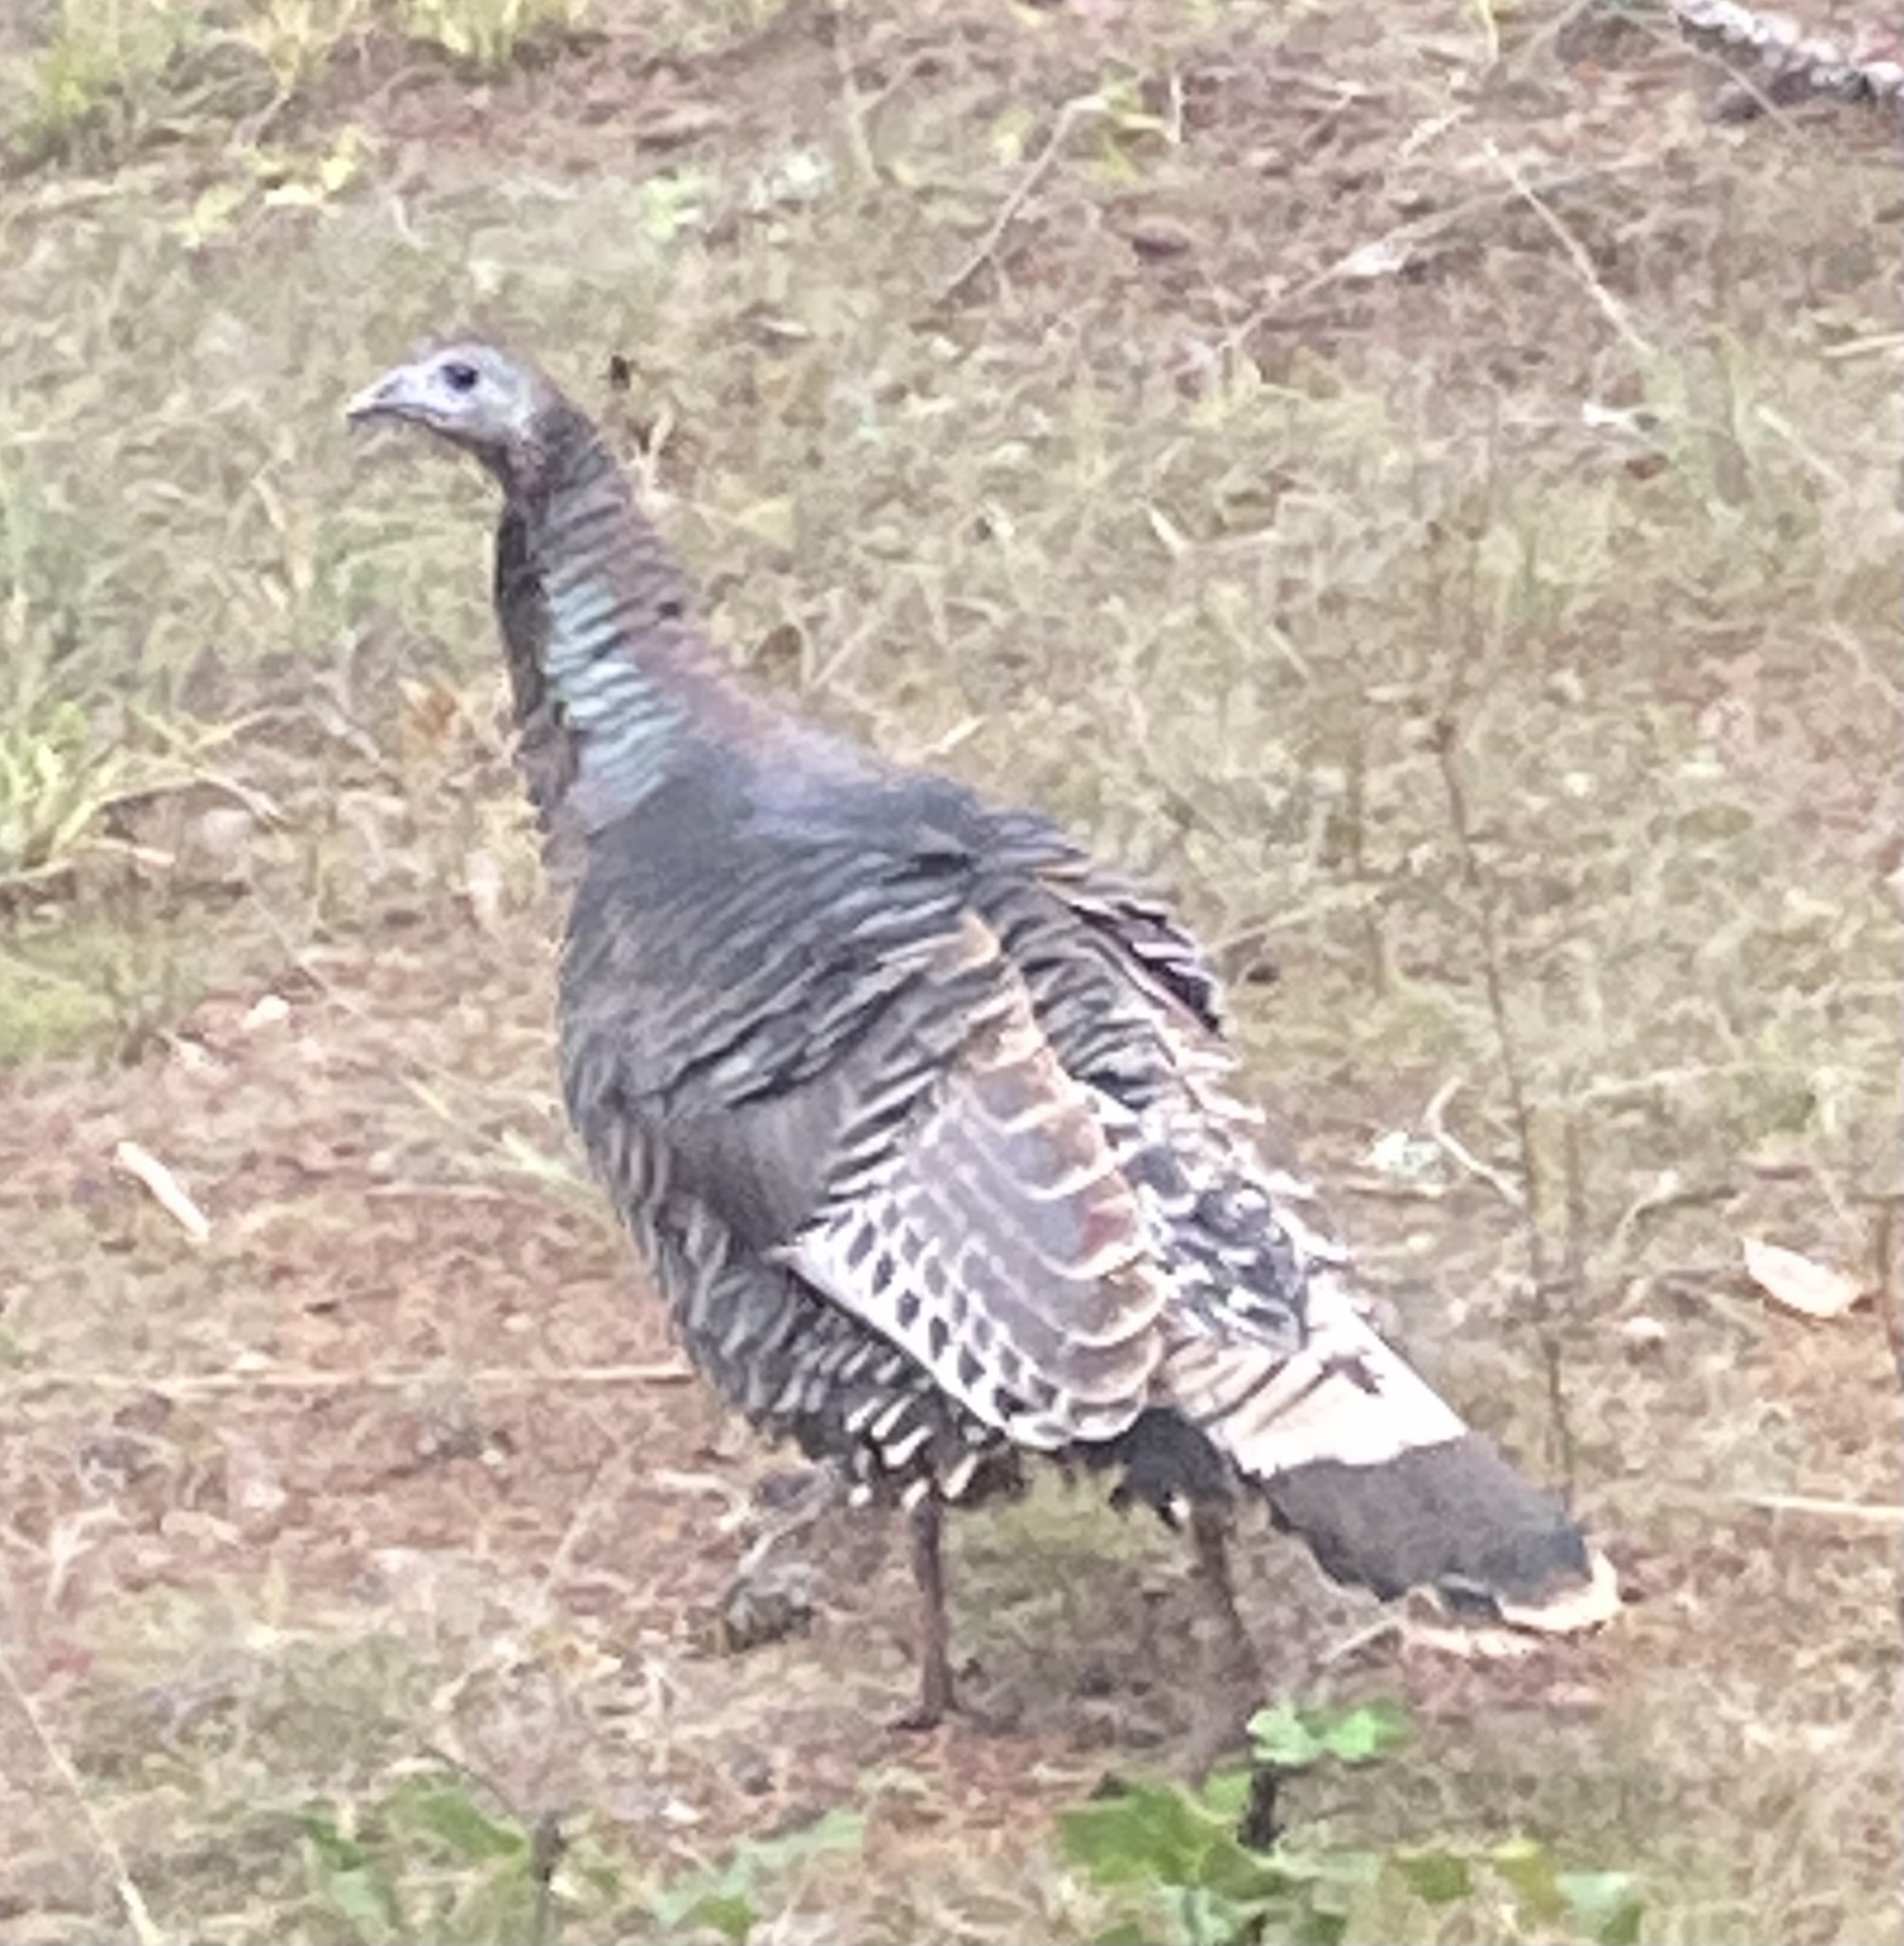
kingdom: Animalia
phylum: Chordata
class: Aves
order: Galliformes
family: Phasianidae
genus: Meleagris
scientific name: Meleagris gallopavo
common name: Wild turkey
